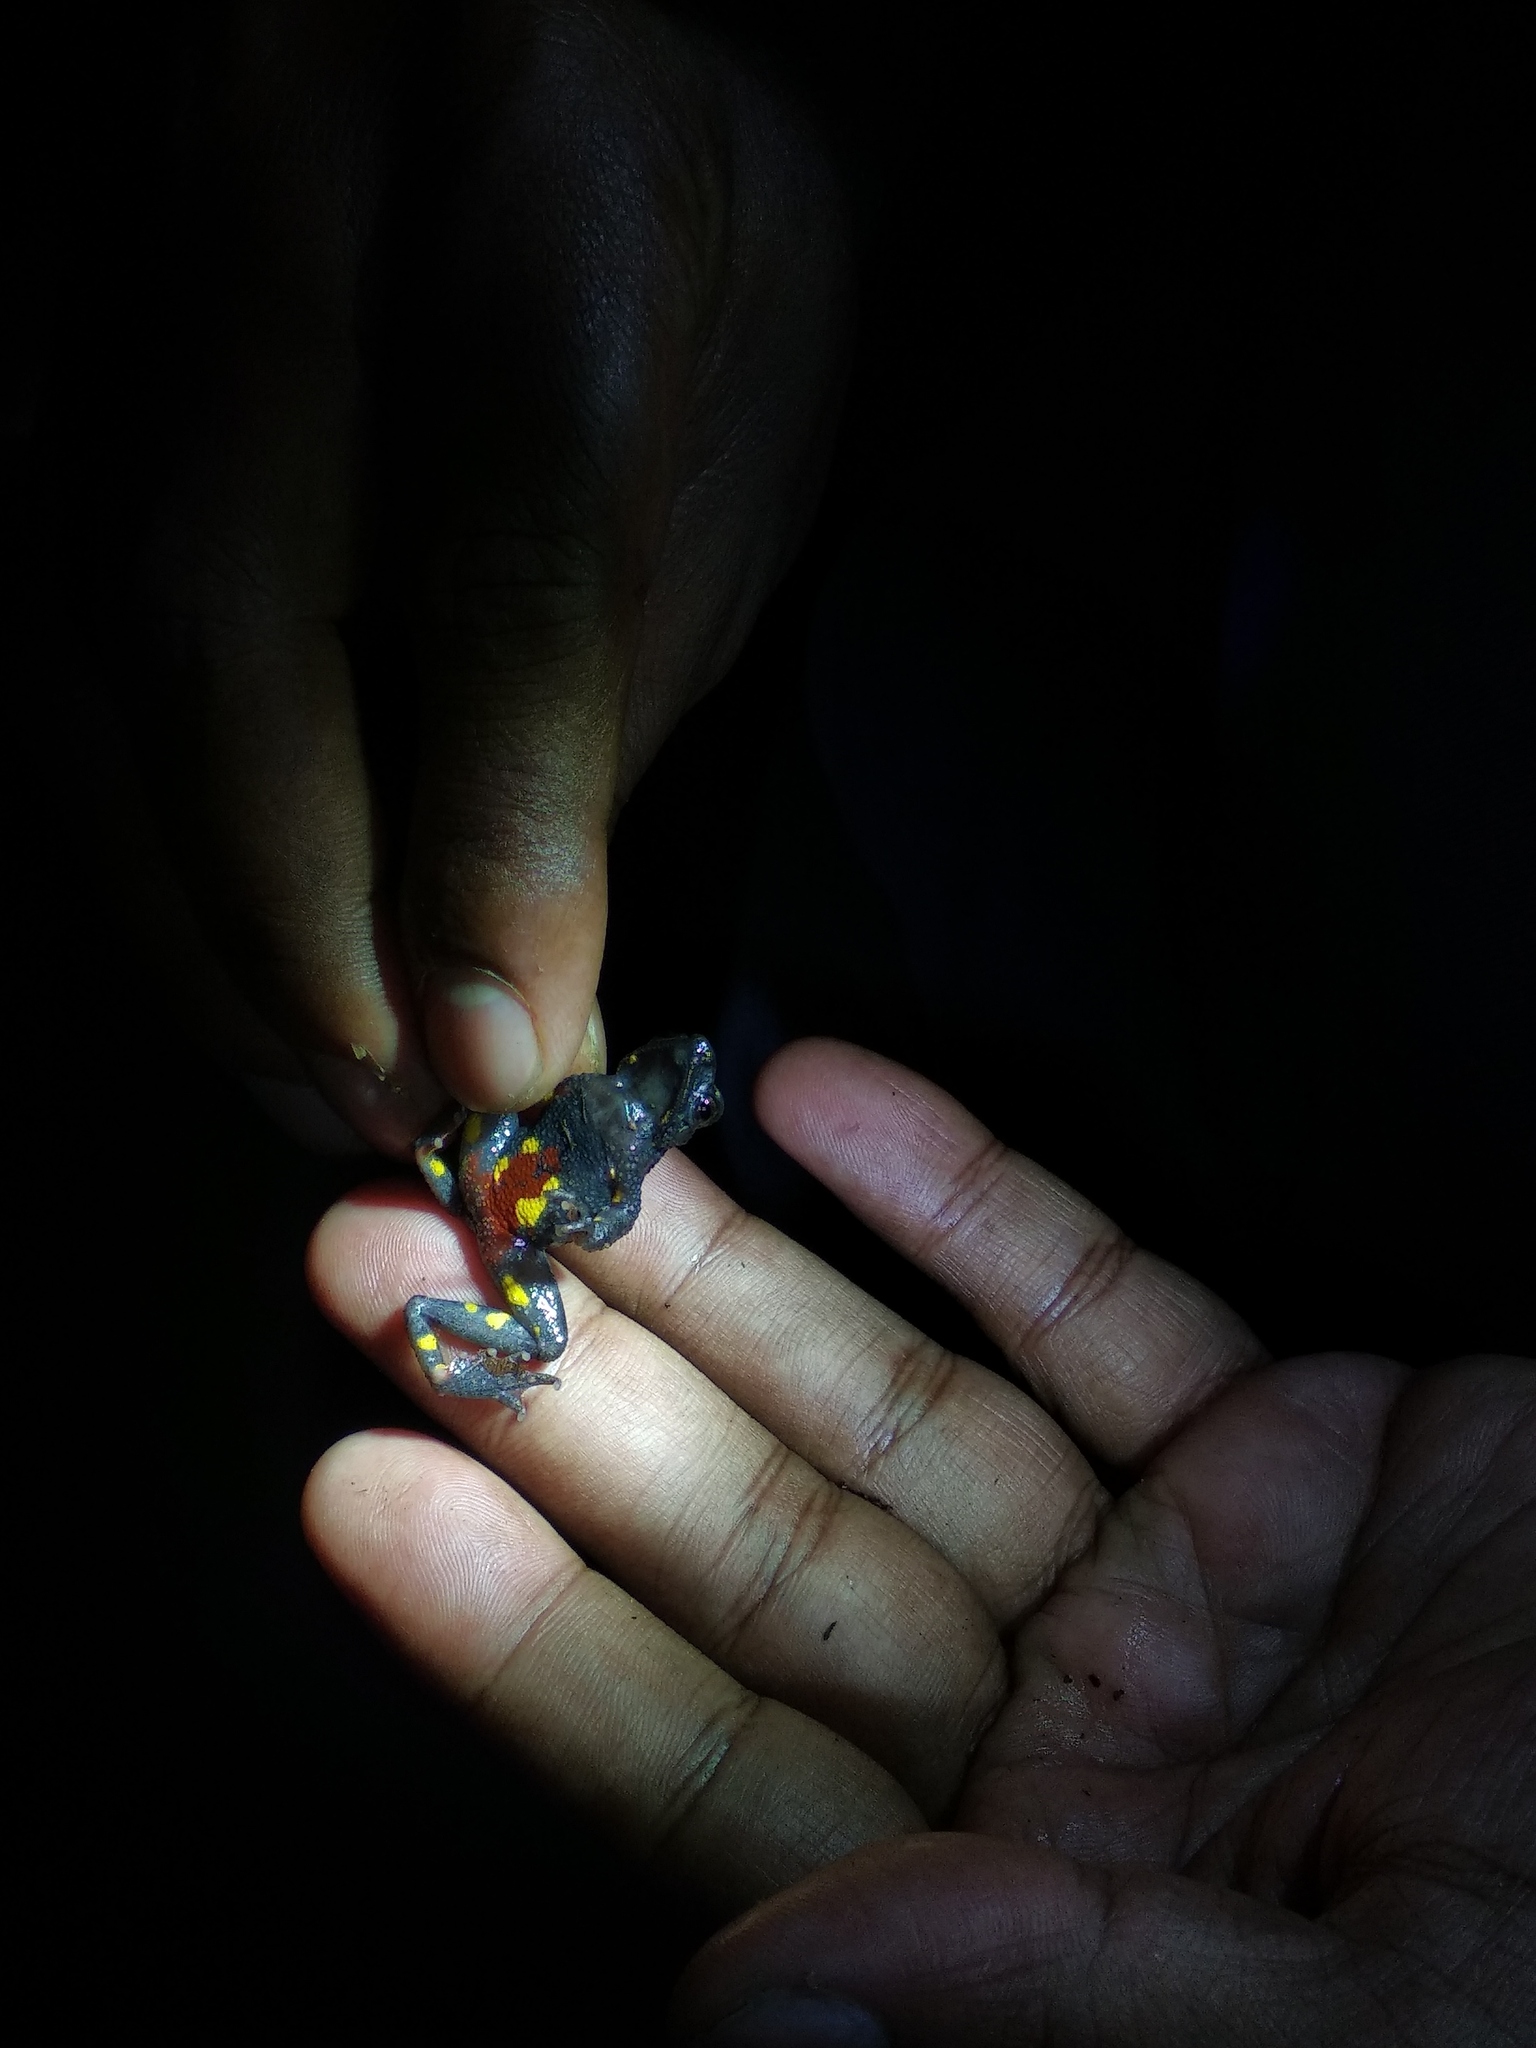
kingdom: Animalia
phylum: Chordata
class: Amphibia
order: Anura
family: Bufonidae
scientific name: Bufonidae
